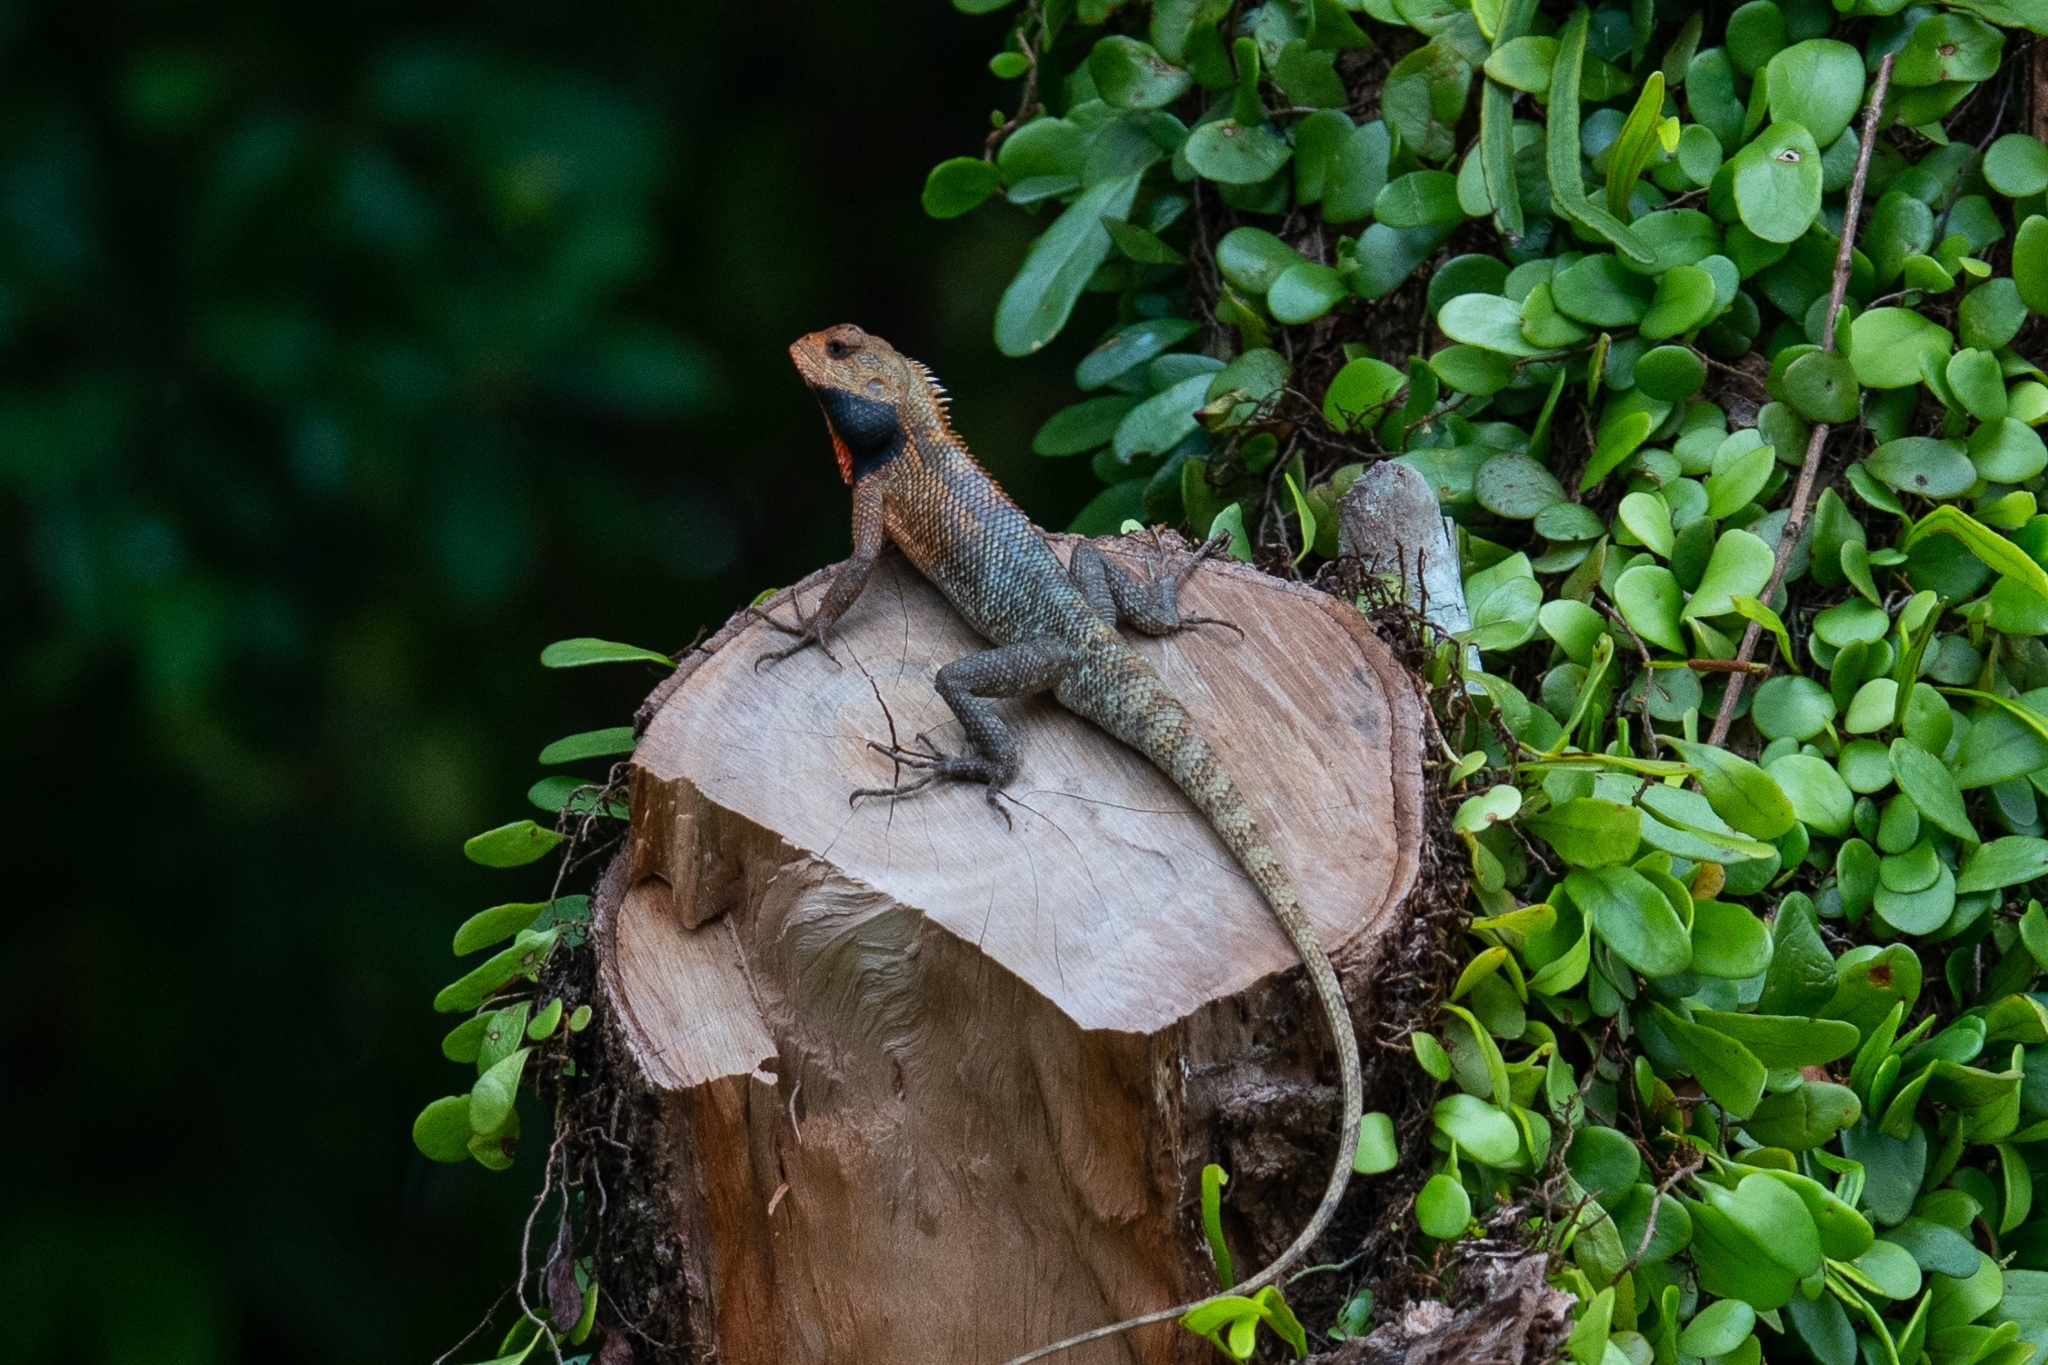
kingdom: Animalia
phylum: Chordata
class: Squamata
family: Agamidae
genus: Calotes
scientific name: Calotes versicolor
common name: Oriental garden lizard
